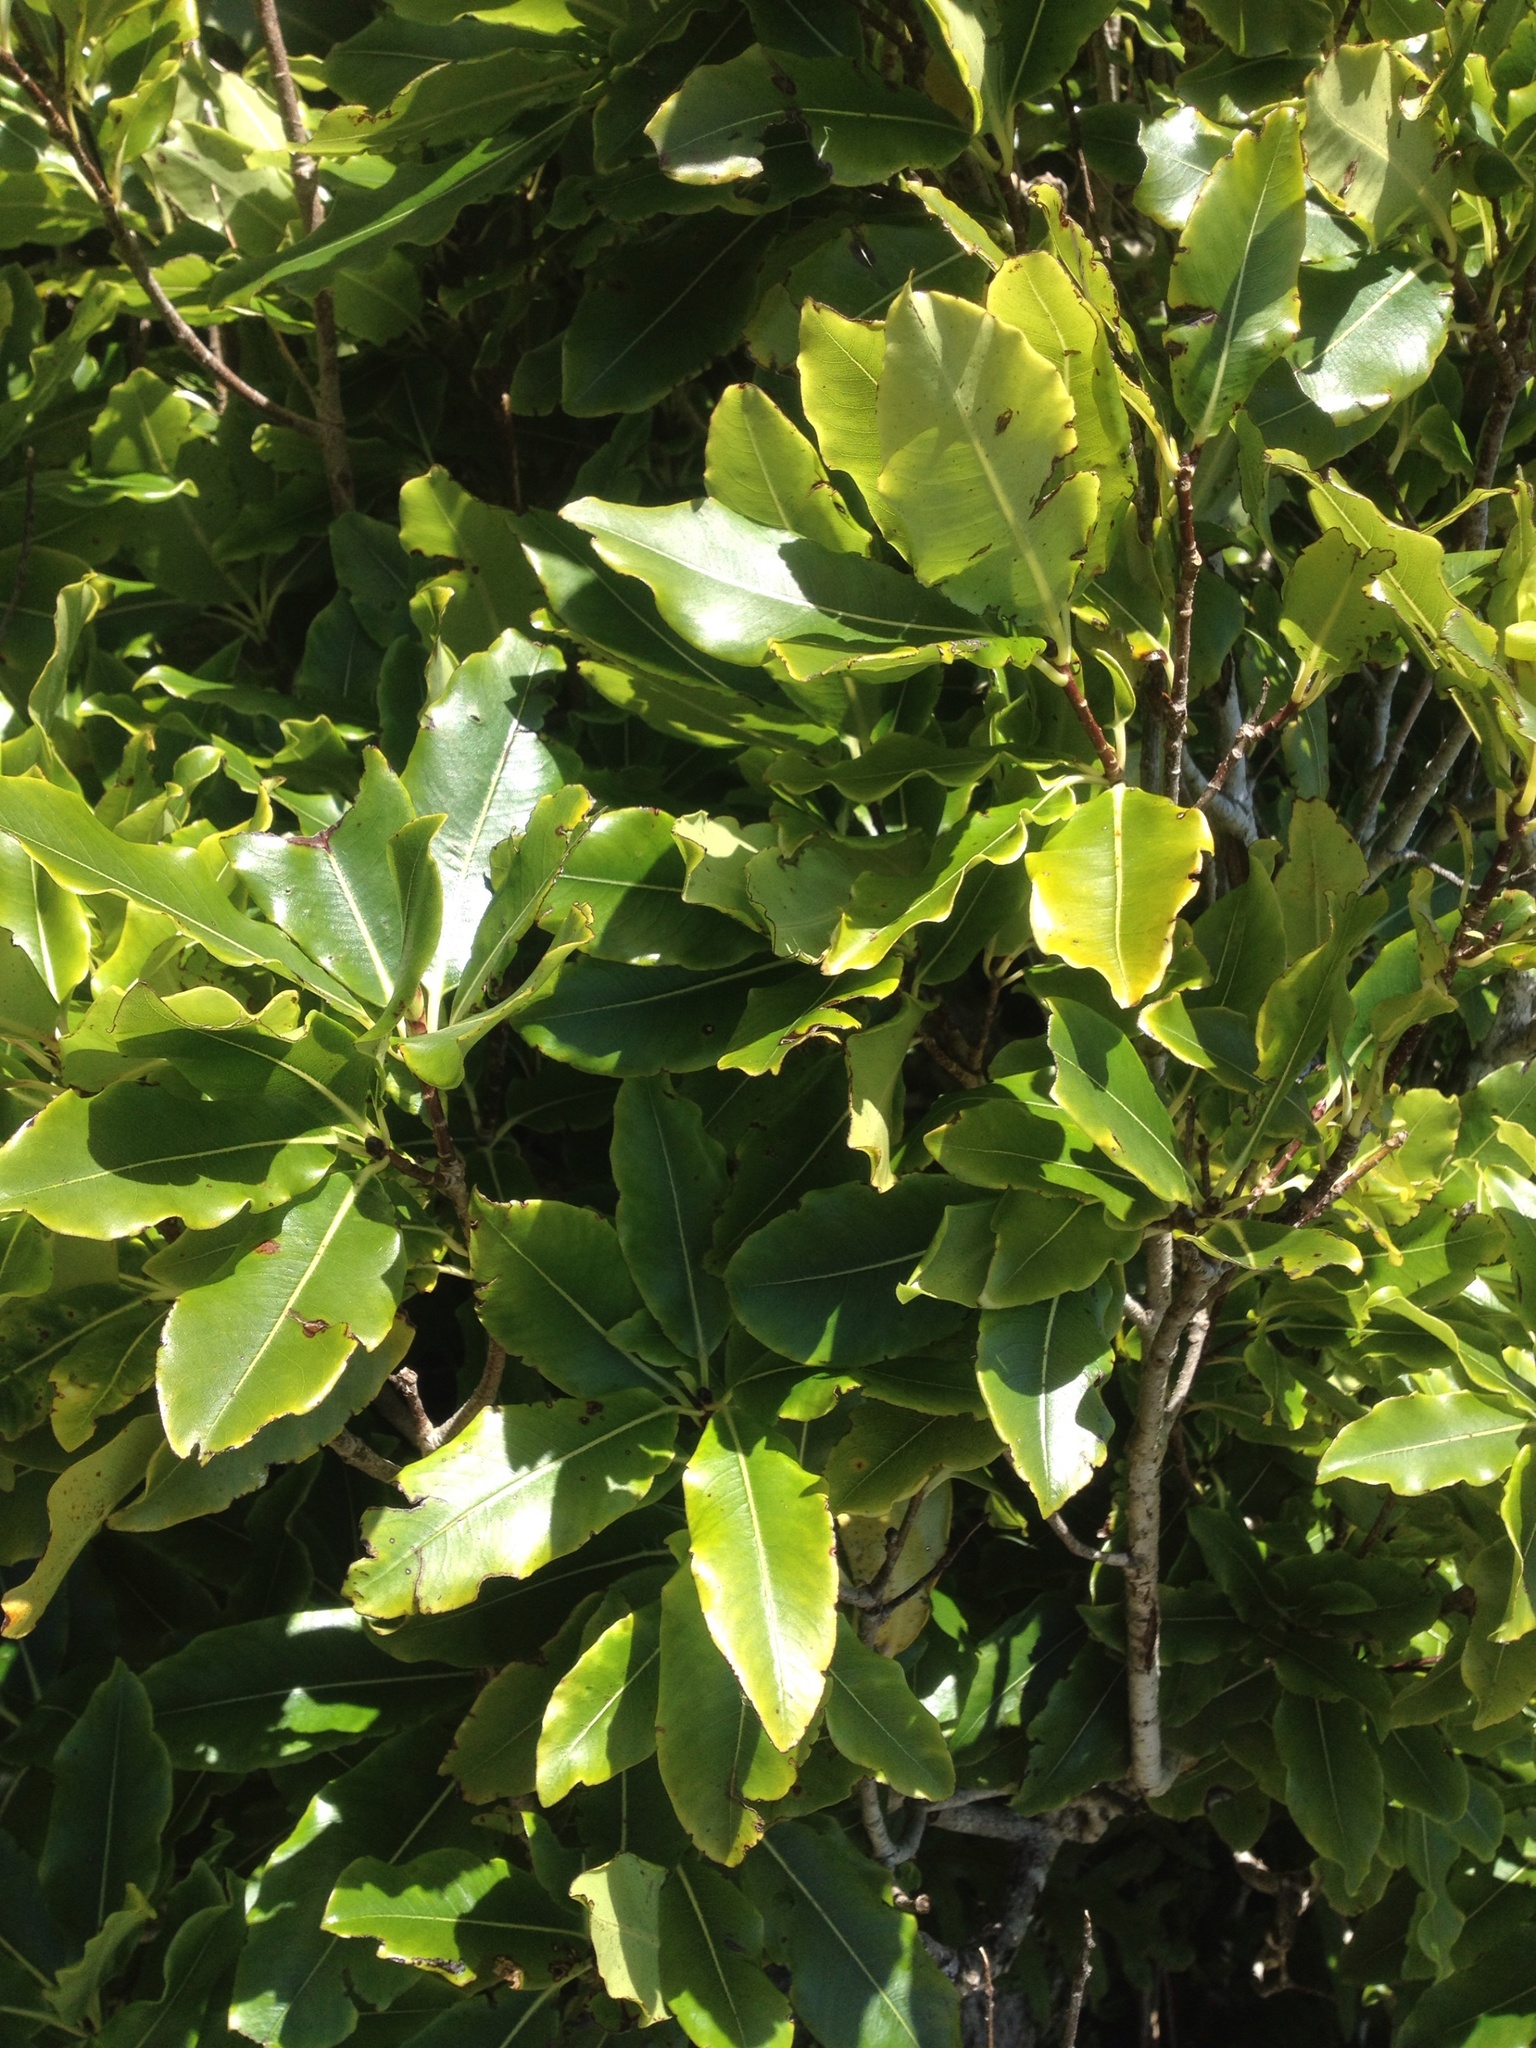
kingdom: Plantae
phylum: Tracheophyta
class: Magnoliopsida
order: Apiales
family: Pittosporaceae
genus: Pittosporum
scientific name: Pittosporum eugenioides
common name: Lemonwood
